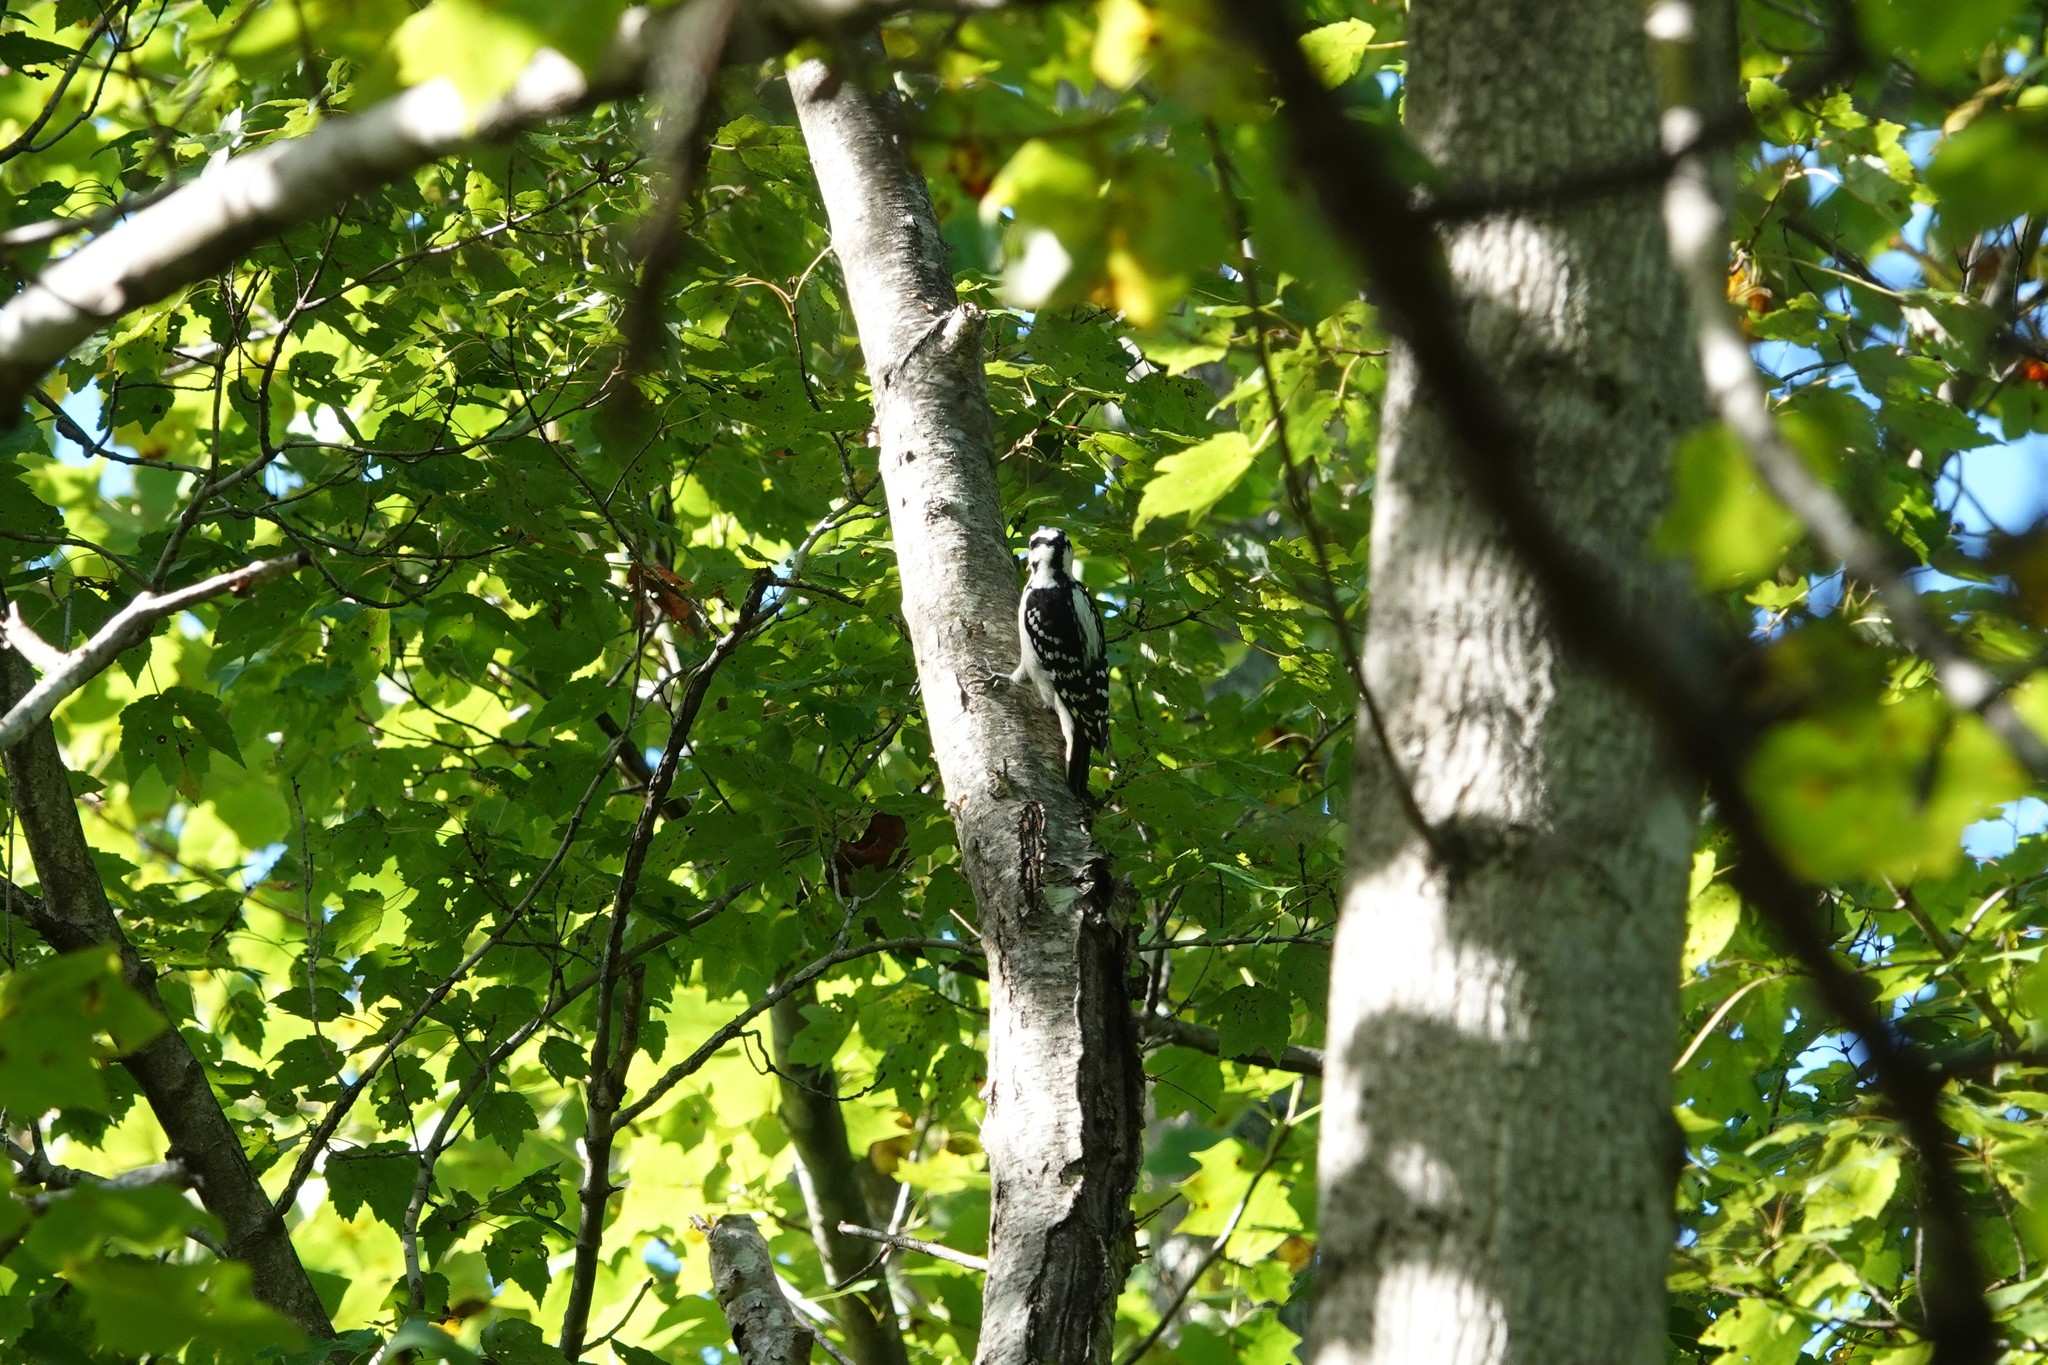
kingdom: Animalia
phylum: Chordata
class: Aves
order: Piciformes
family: Picidae
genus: Leuconotopicus
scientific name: Leuconotopicus villosus
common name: Hairy woodpecker
